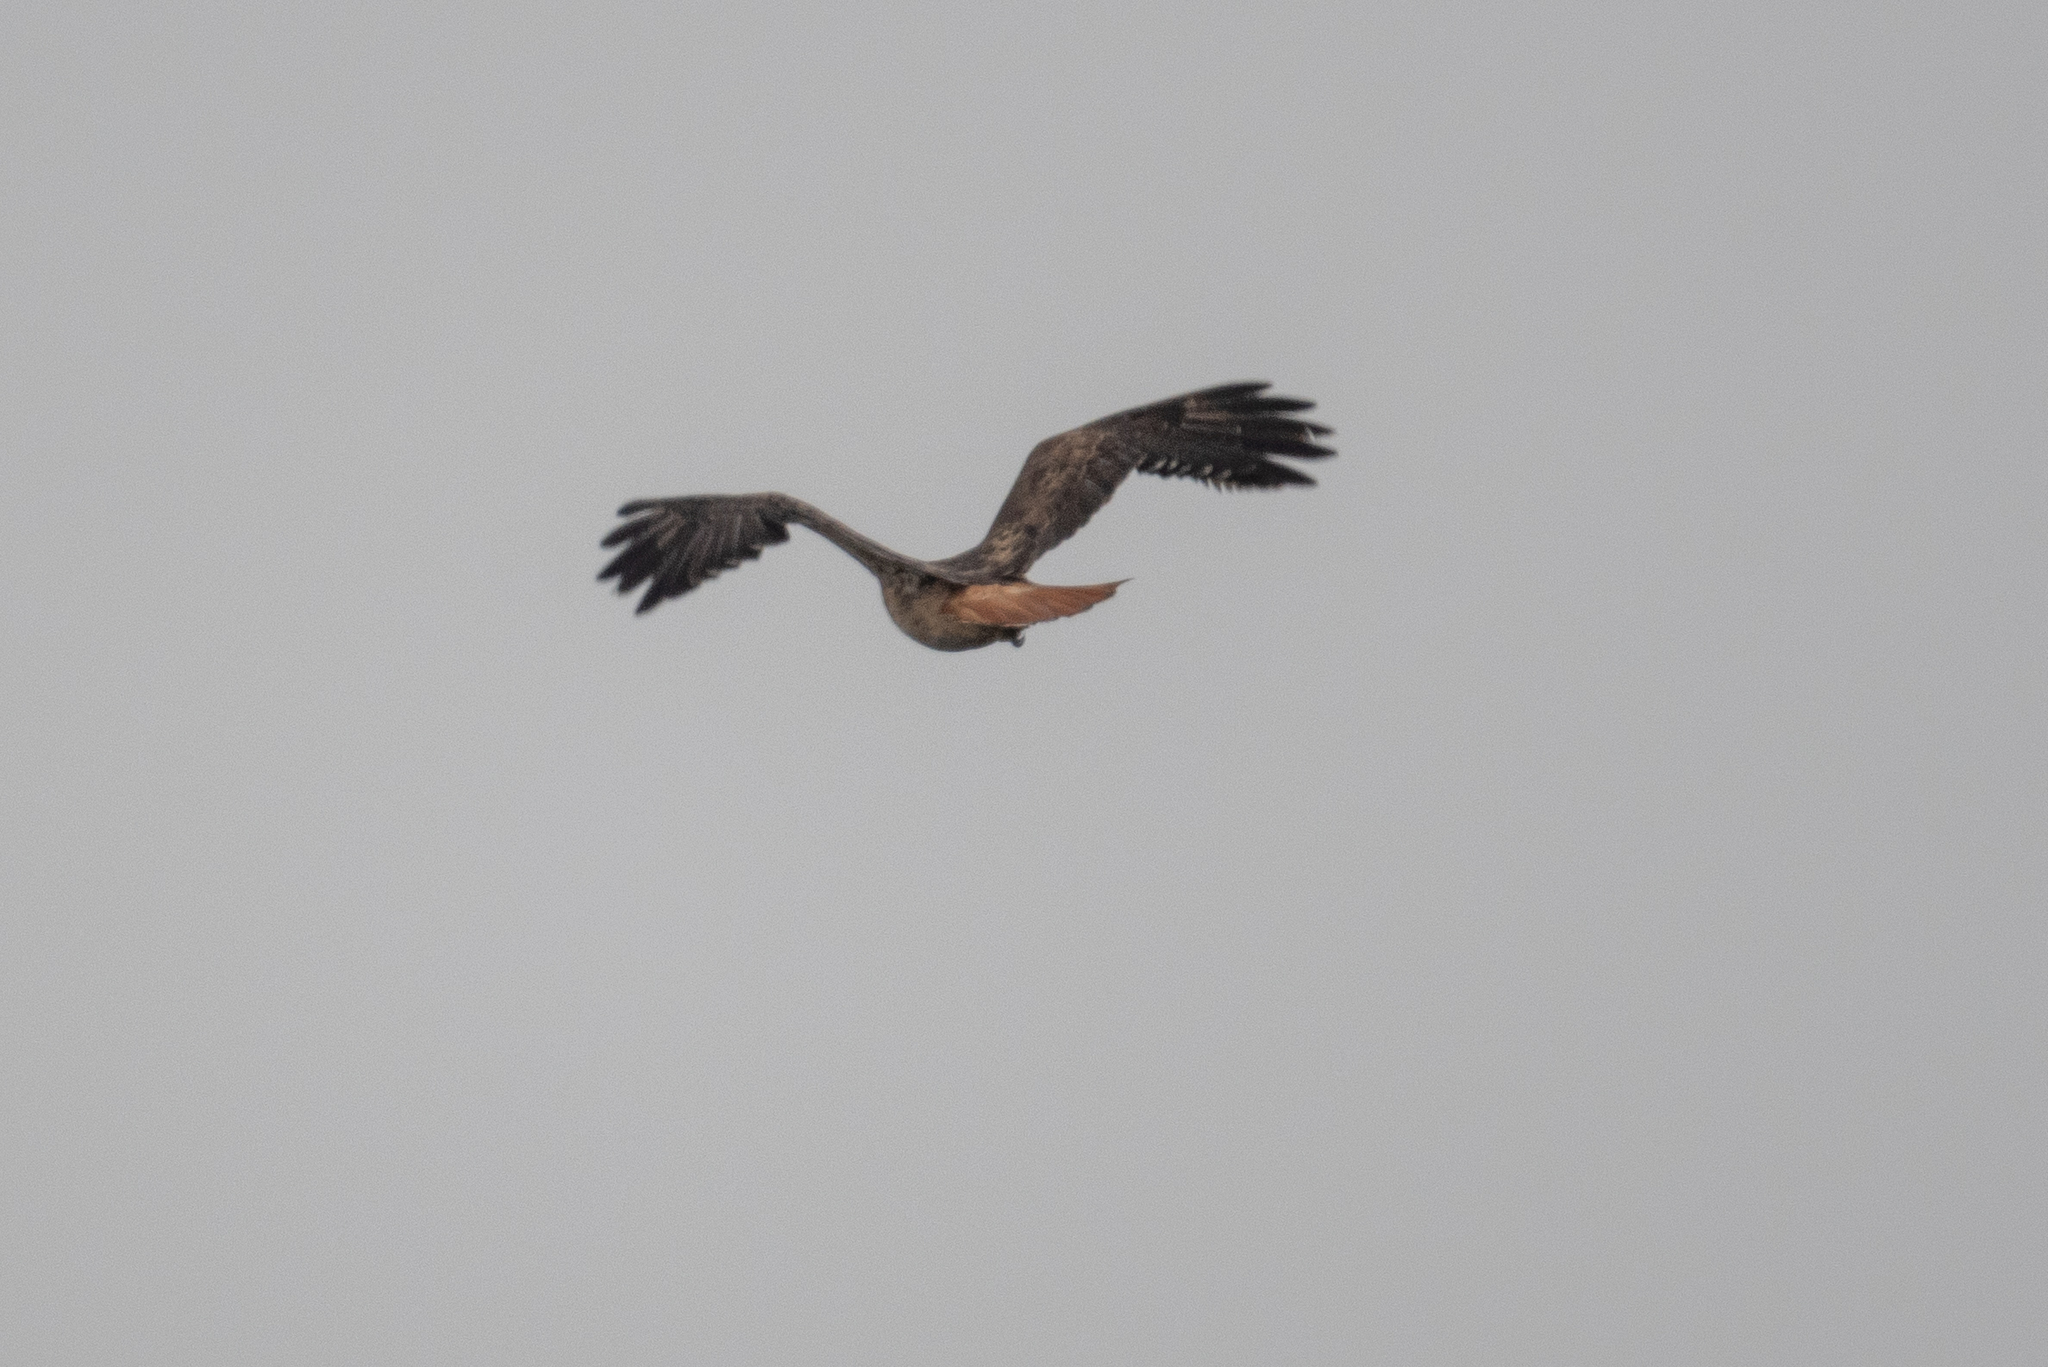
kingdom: Animalia
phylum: Chordata
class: Aves
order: Accipitriformes
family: Accipitridae
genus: Buteo
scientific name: Buteo jamaicensis
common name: Red-tailed hawk
